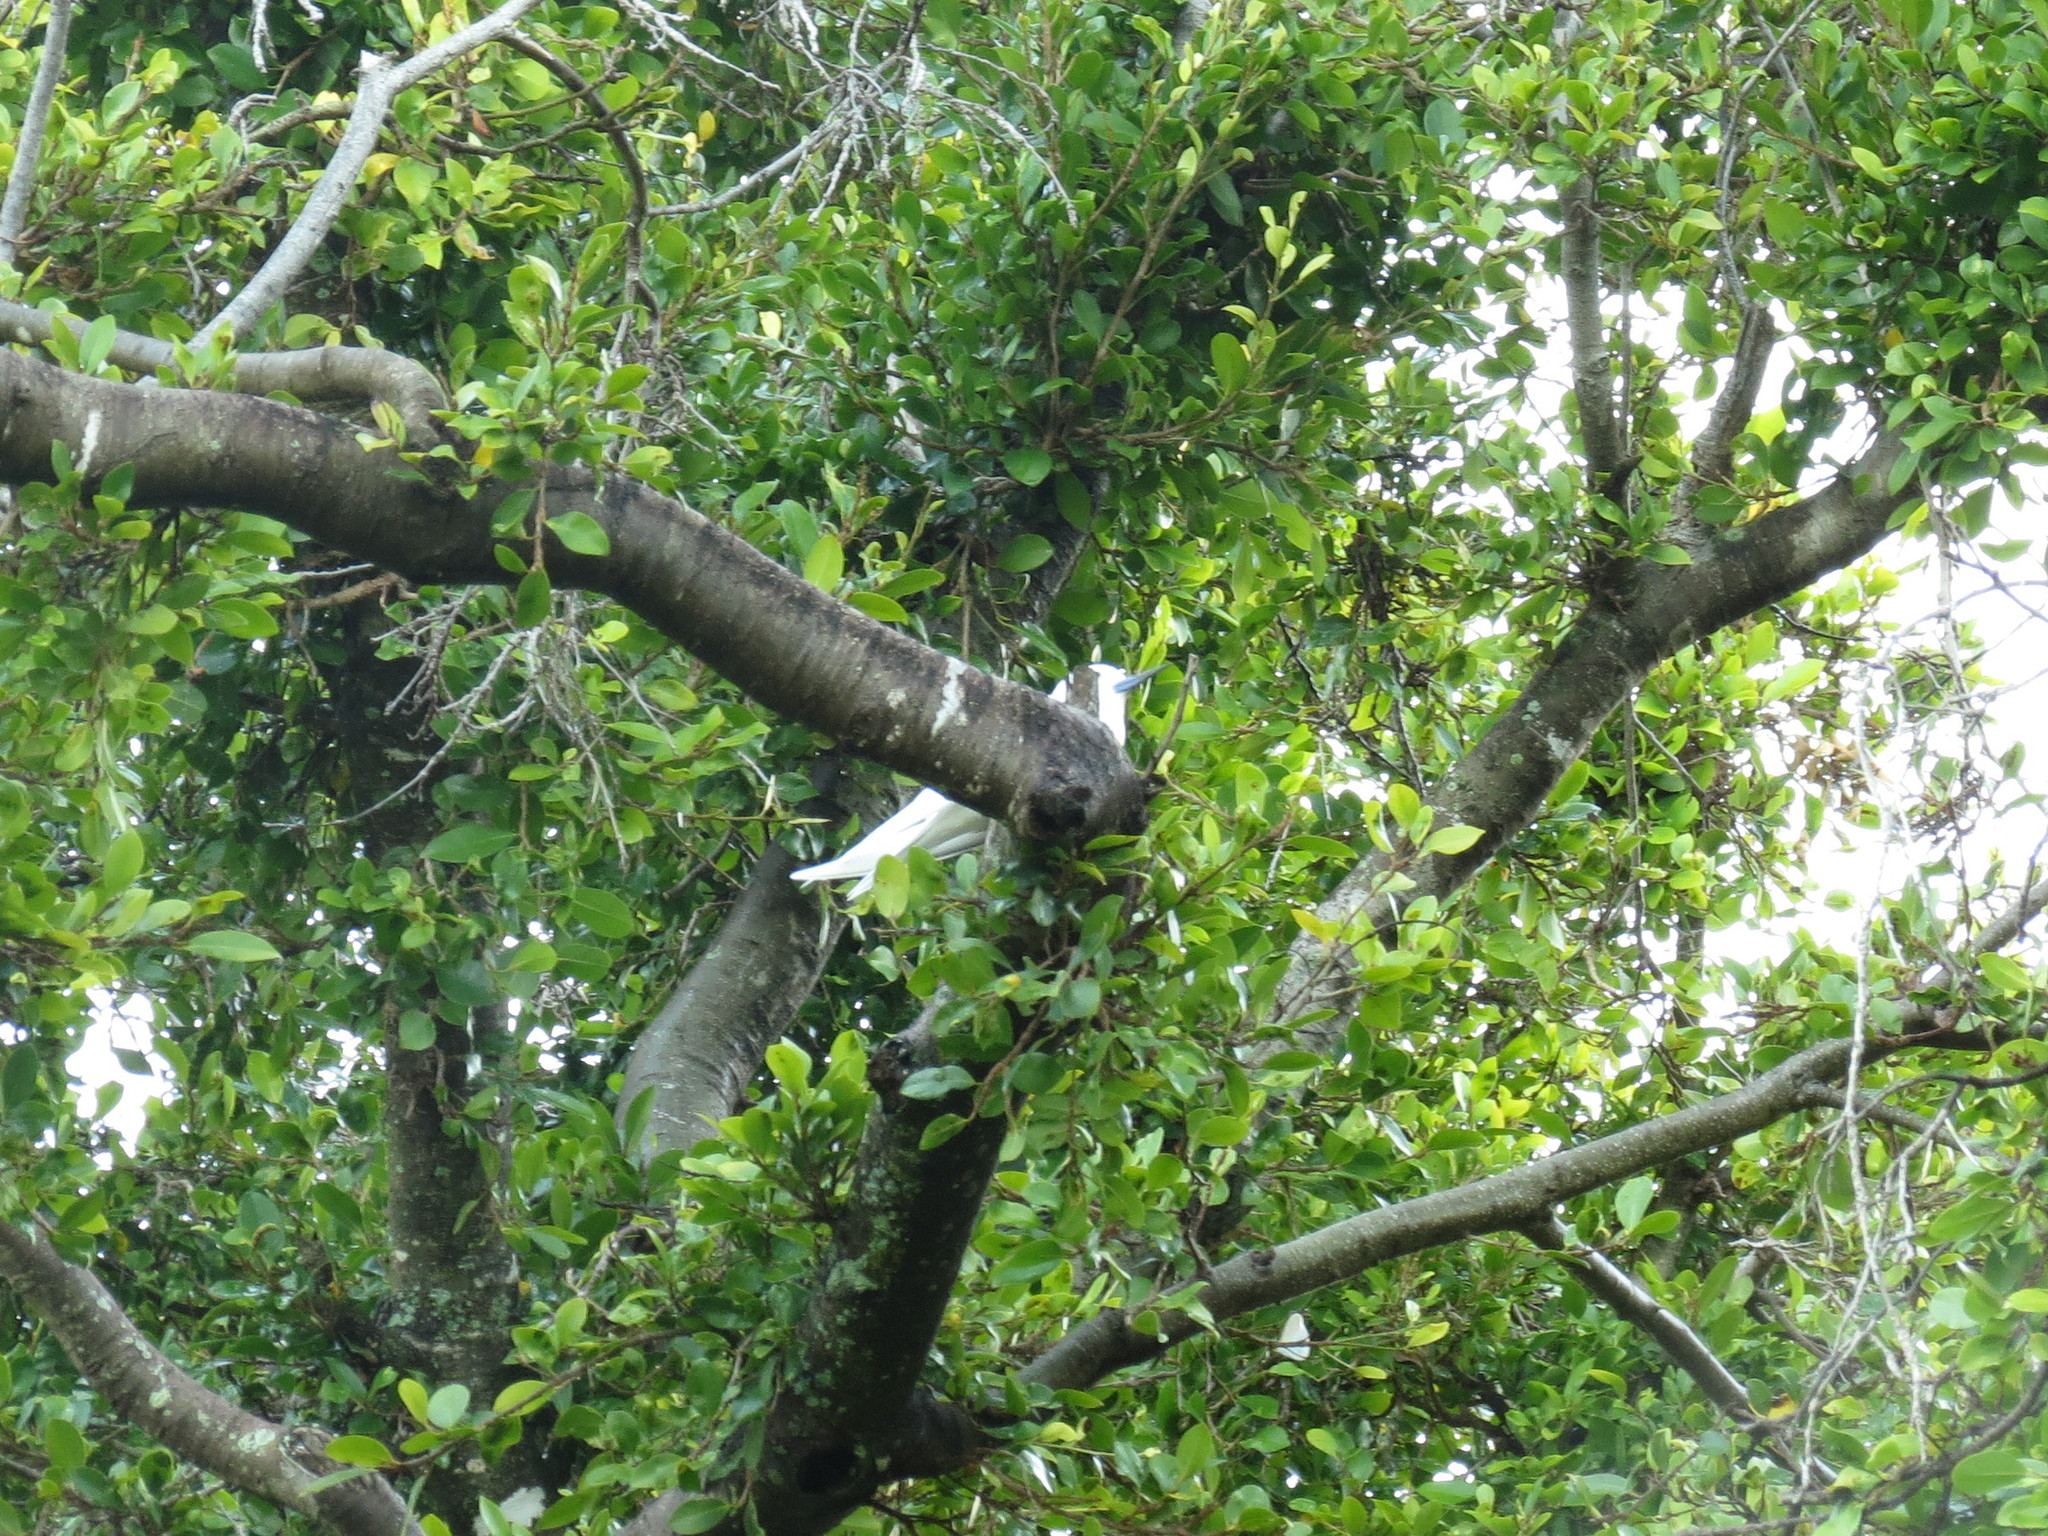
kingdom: Animalia
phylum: Chordata
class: Aves
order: Charadriiformes
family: Laridae
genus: Gygis
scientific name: Gygis alba
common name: White tern
